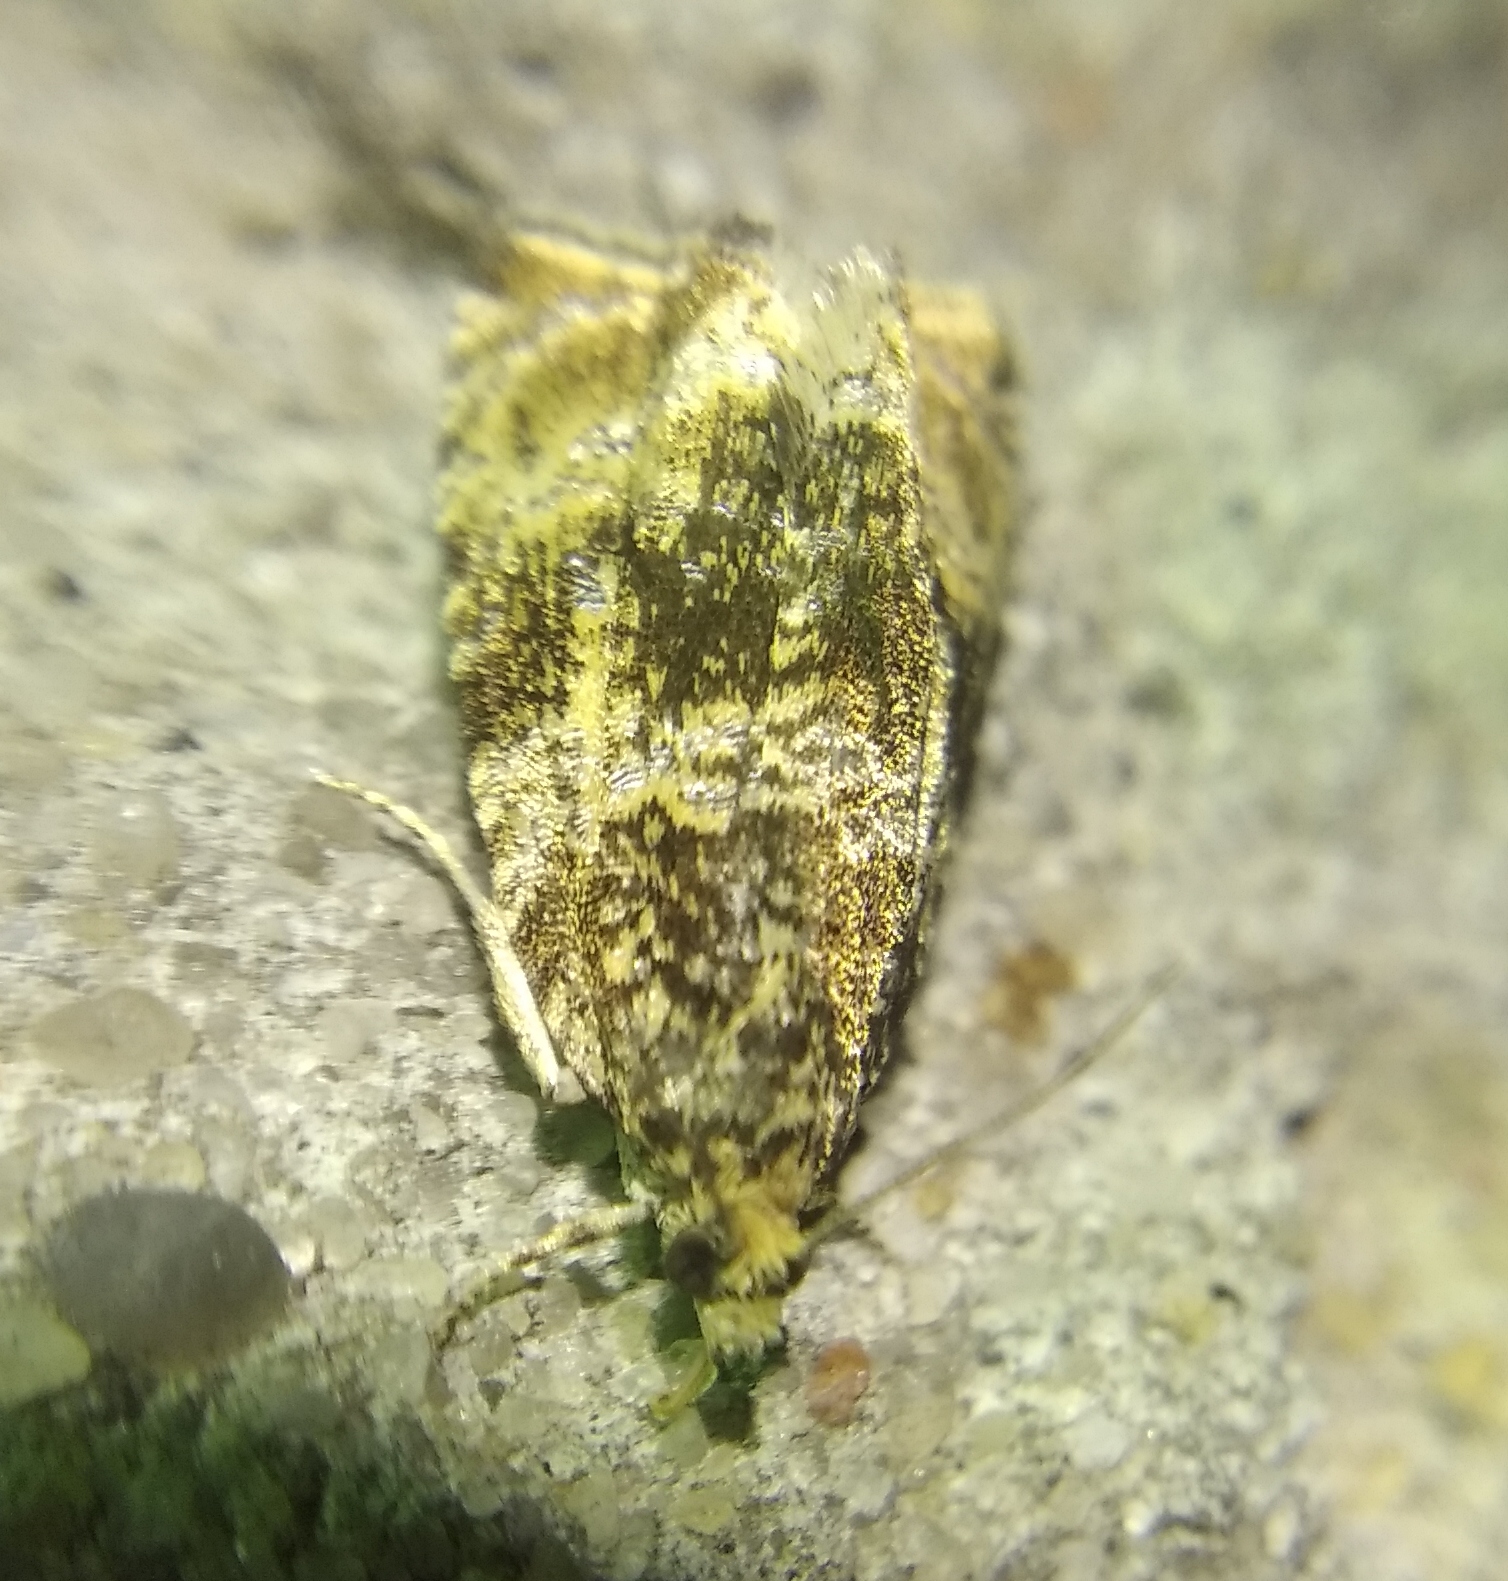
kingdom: Animalia
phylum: Arthropoda
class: Insecta
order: Lepidoptera
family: Tortricidae
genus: Syricoris
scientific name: Syricoris lacunana
